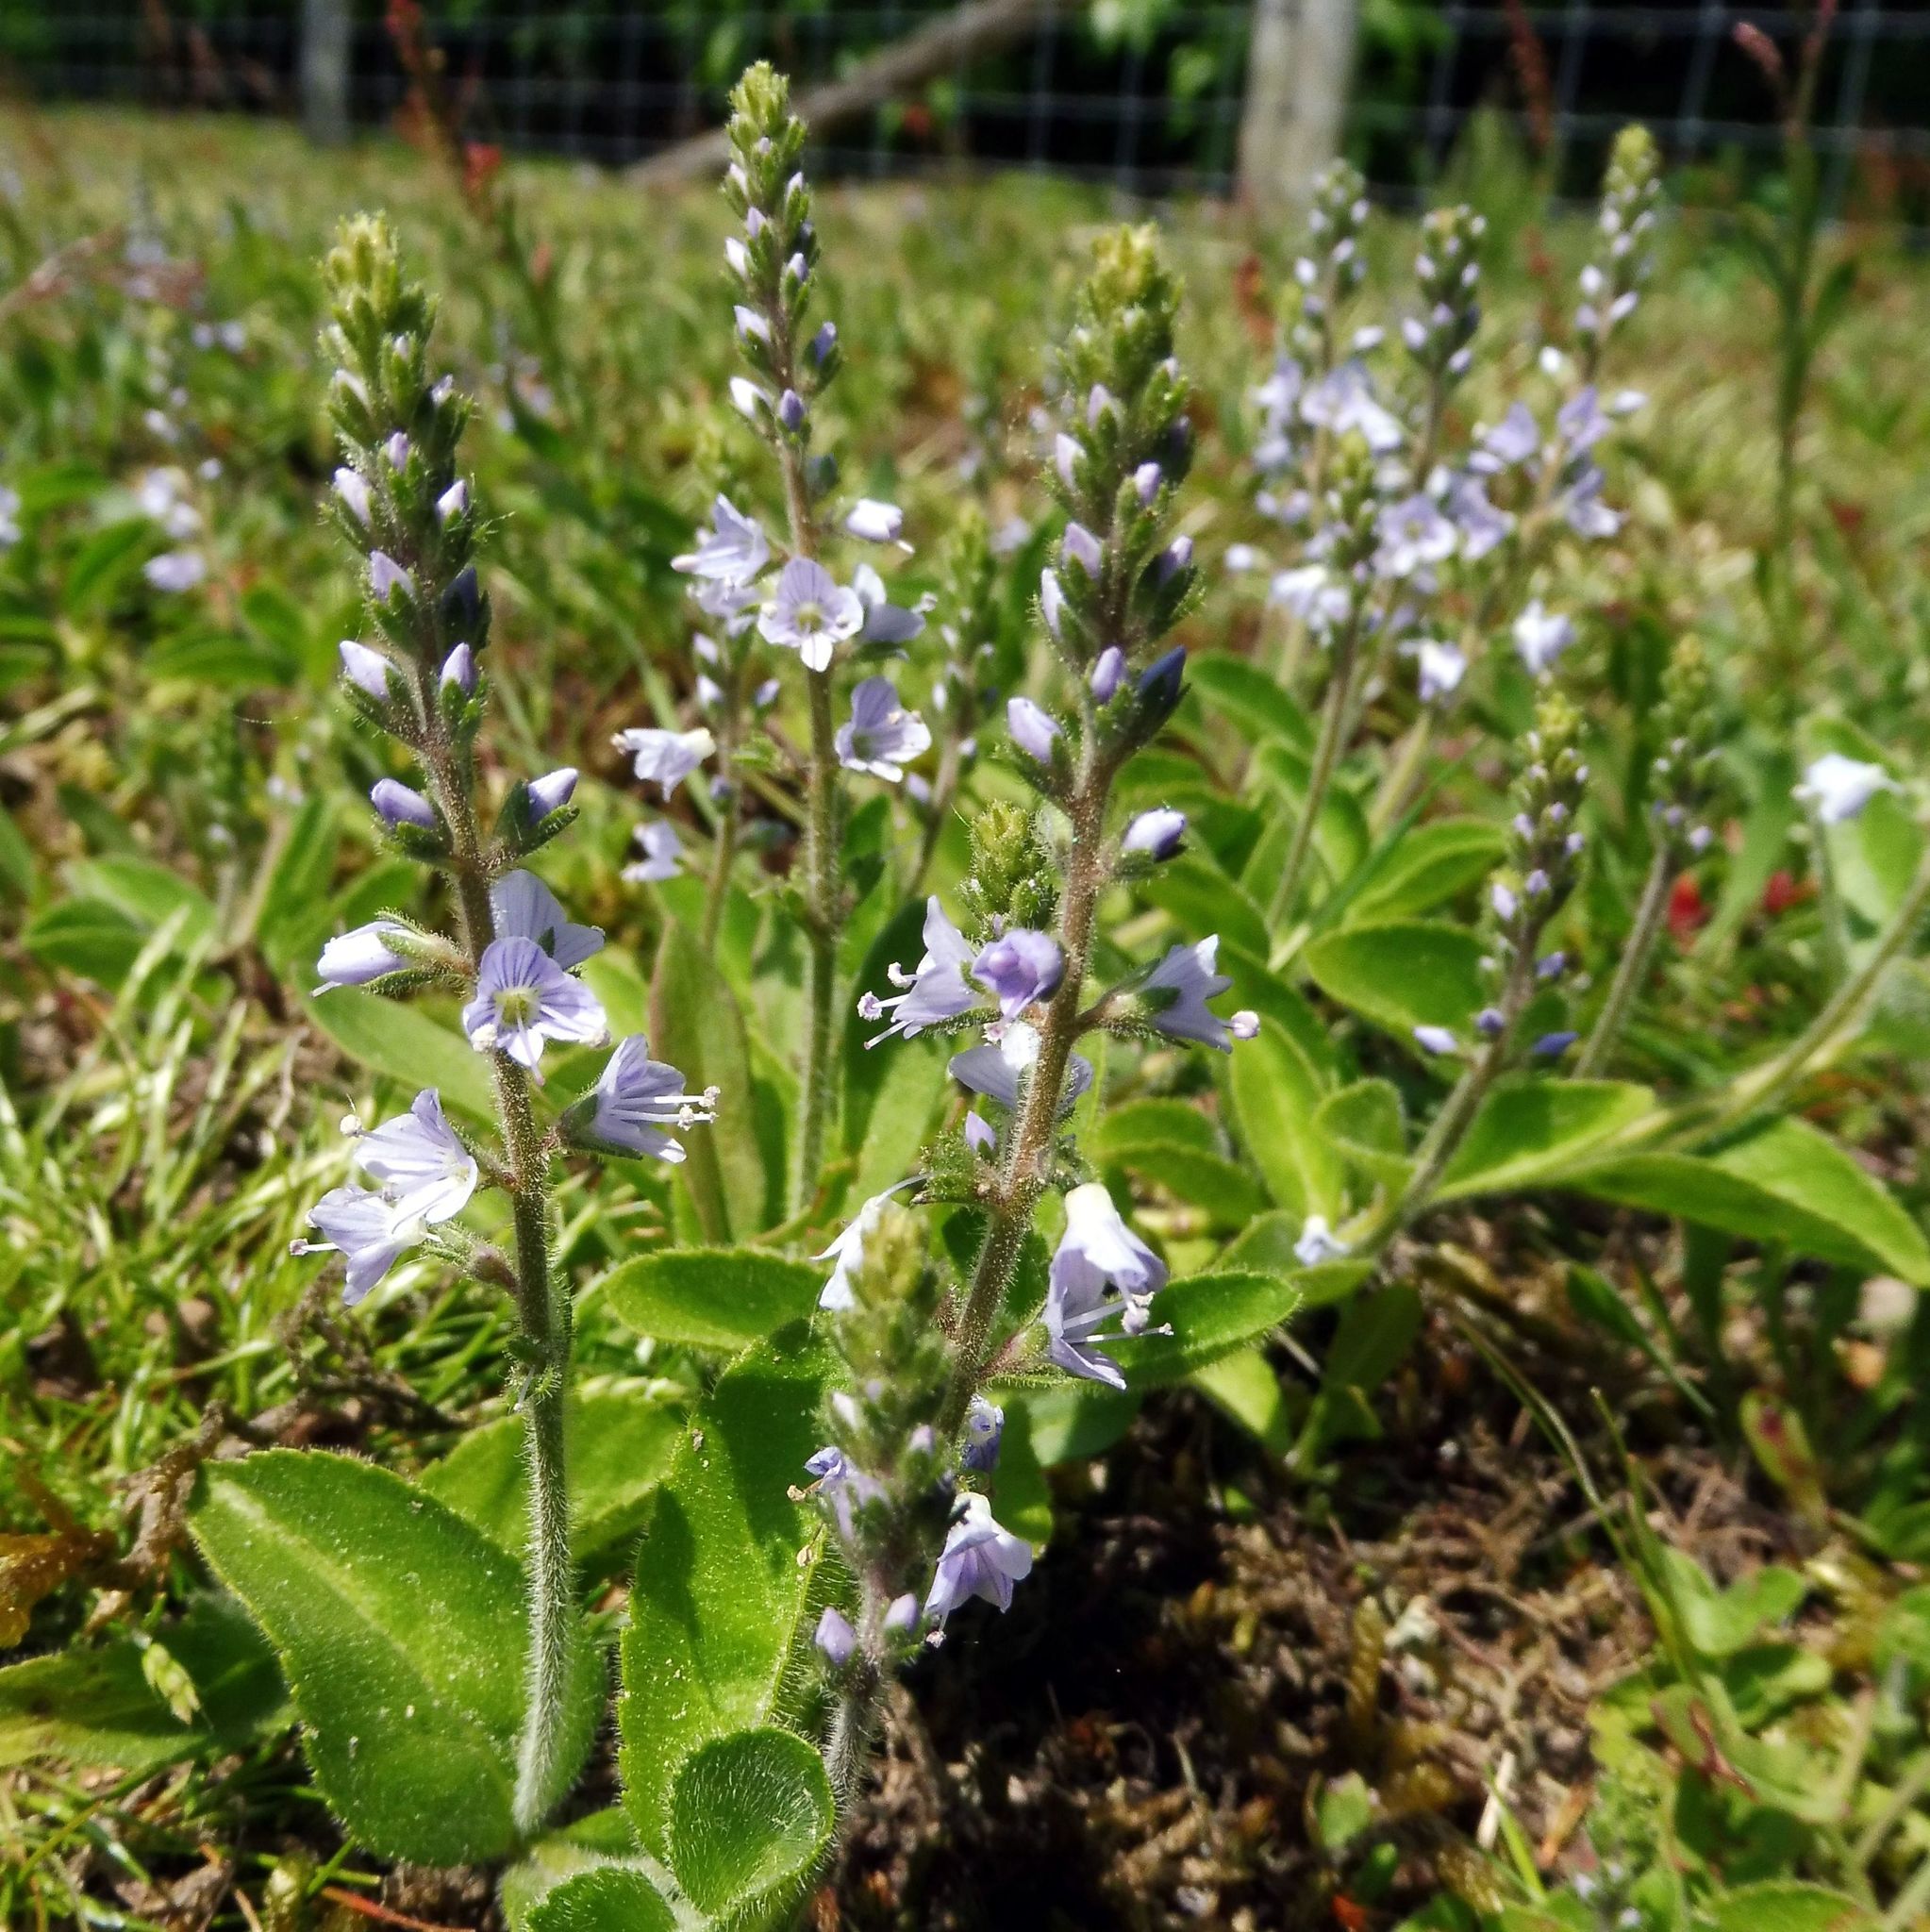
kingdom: Plantae
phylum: Tracheophyta
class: Magnoliopsida
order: Lamiales
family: Plantaginaceae
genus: Veronica
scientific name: Veronica officinalis
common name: Common speedwell
